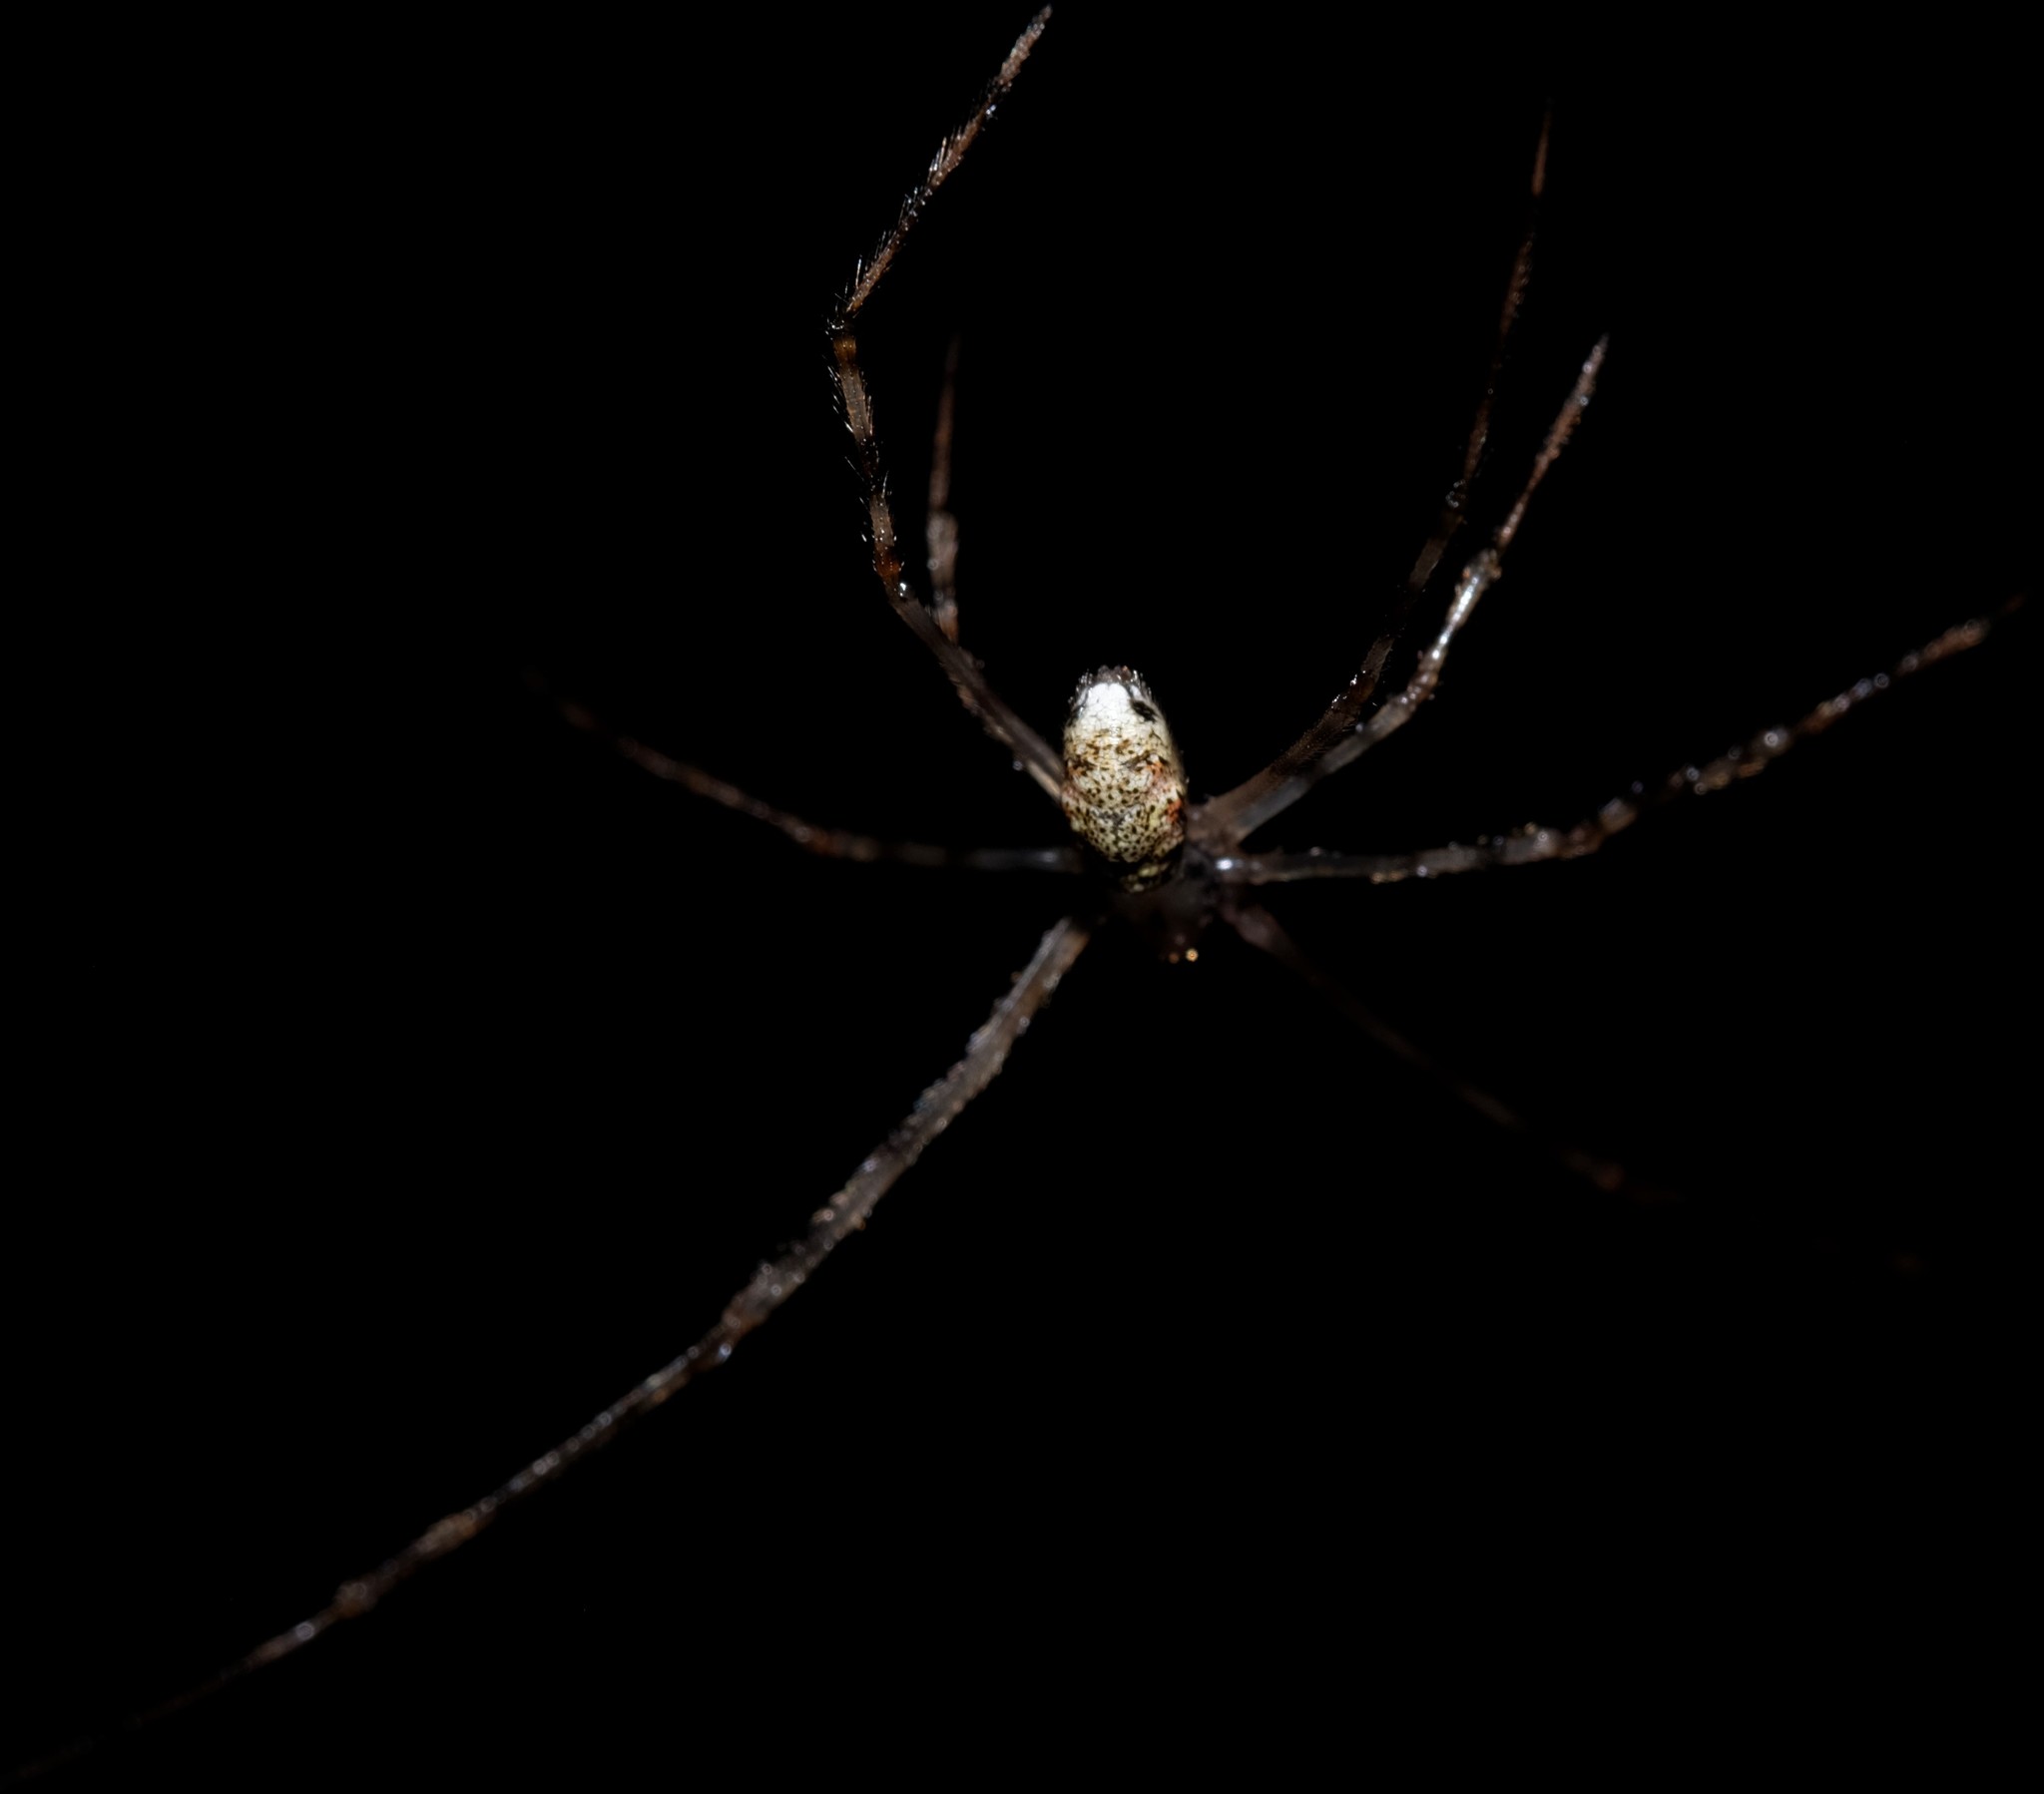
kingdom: Animalia
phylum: Arthropoda
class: Arachnida
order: Araneae
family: Theridiidae
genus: Cryptachaea
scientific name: Cryptachaea gigantipes
